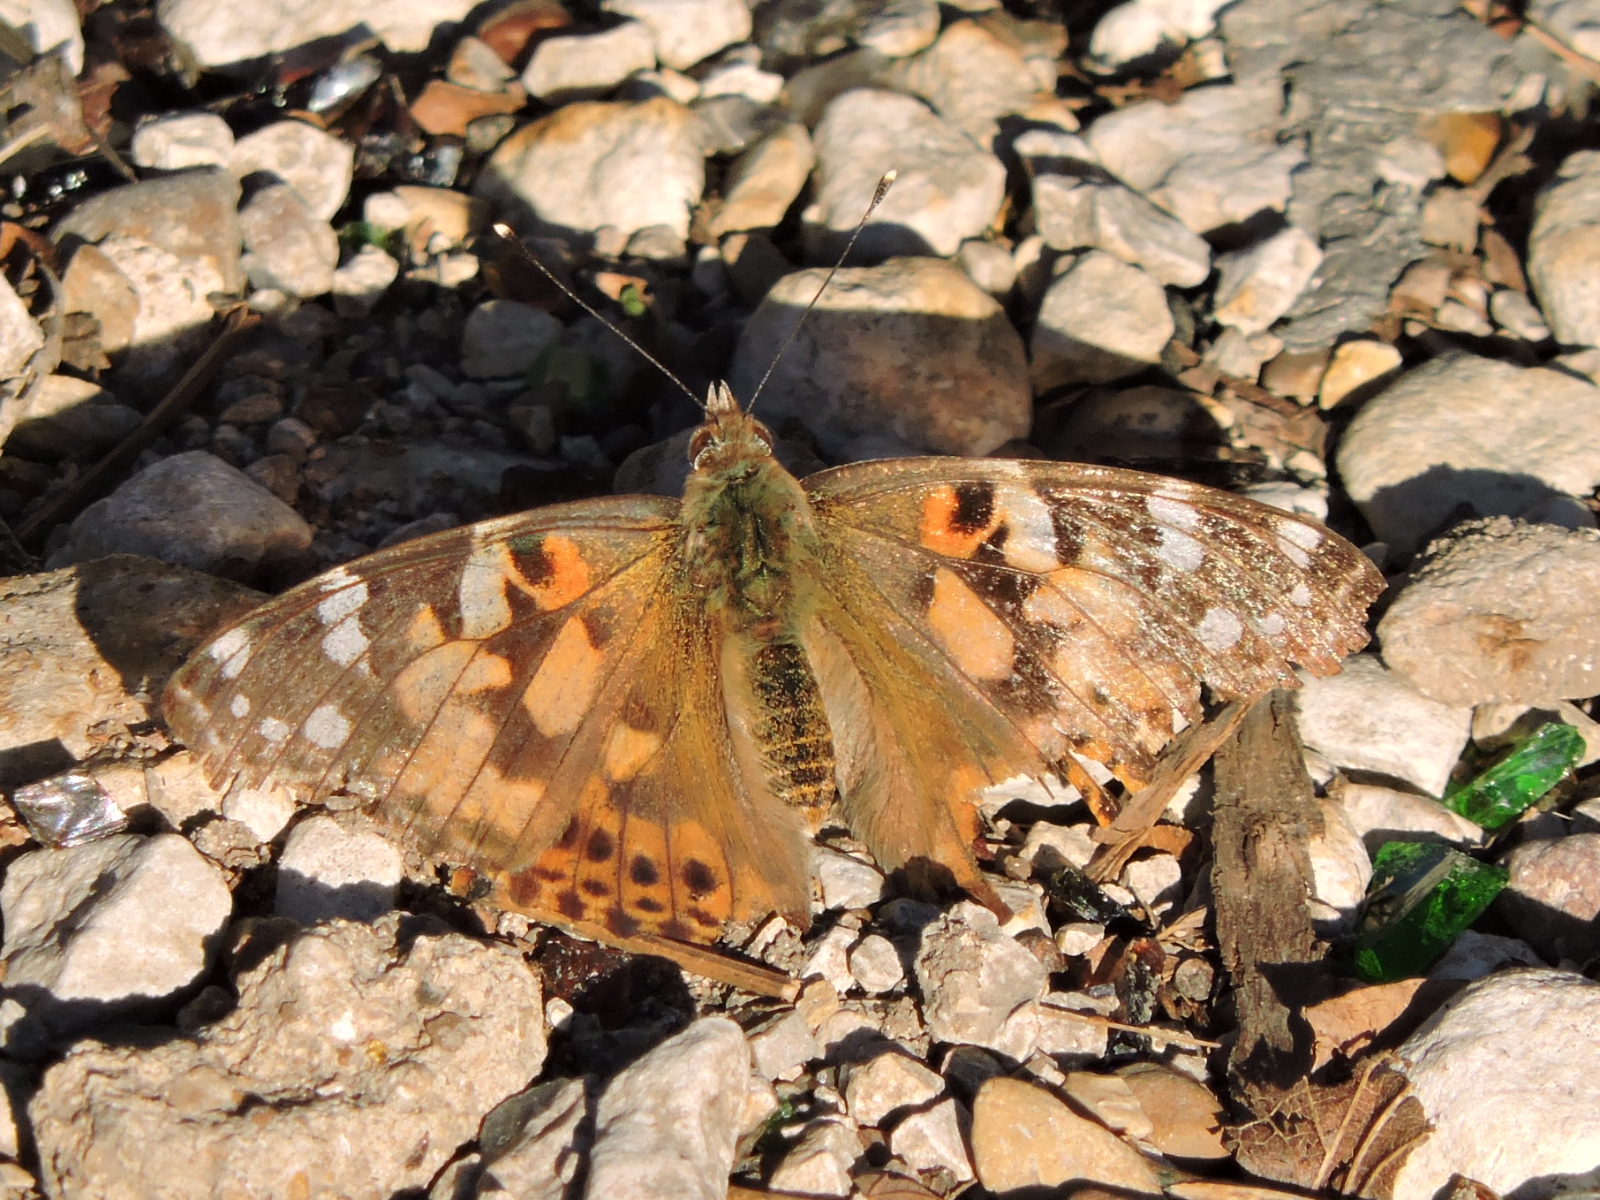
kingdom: Animalia
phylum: Arthropoda
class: Insecta
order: Lepidoptera
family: Nymphalidae
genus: Vanessa
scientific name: Vanessa cardui
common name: Painted lady
